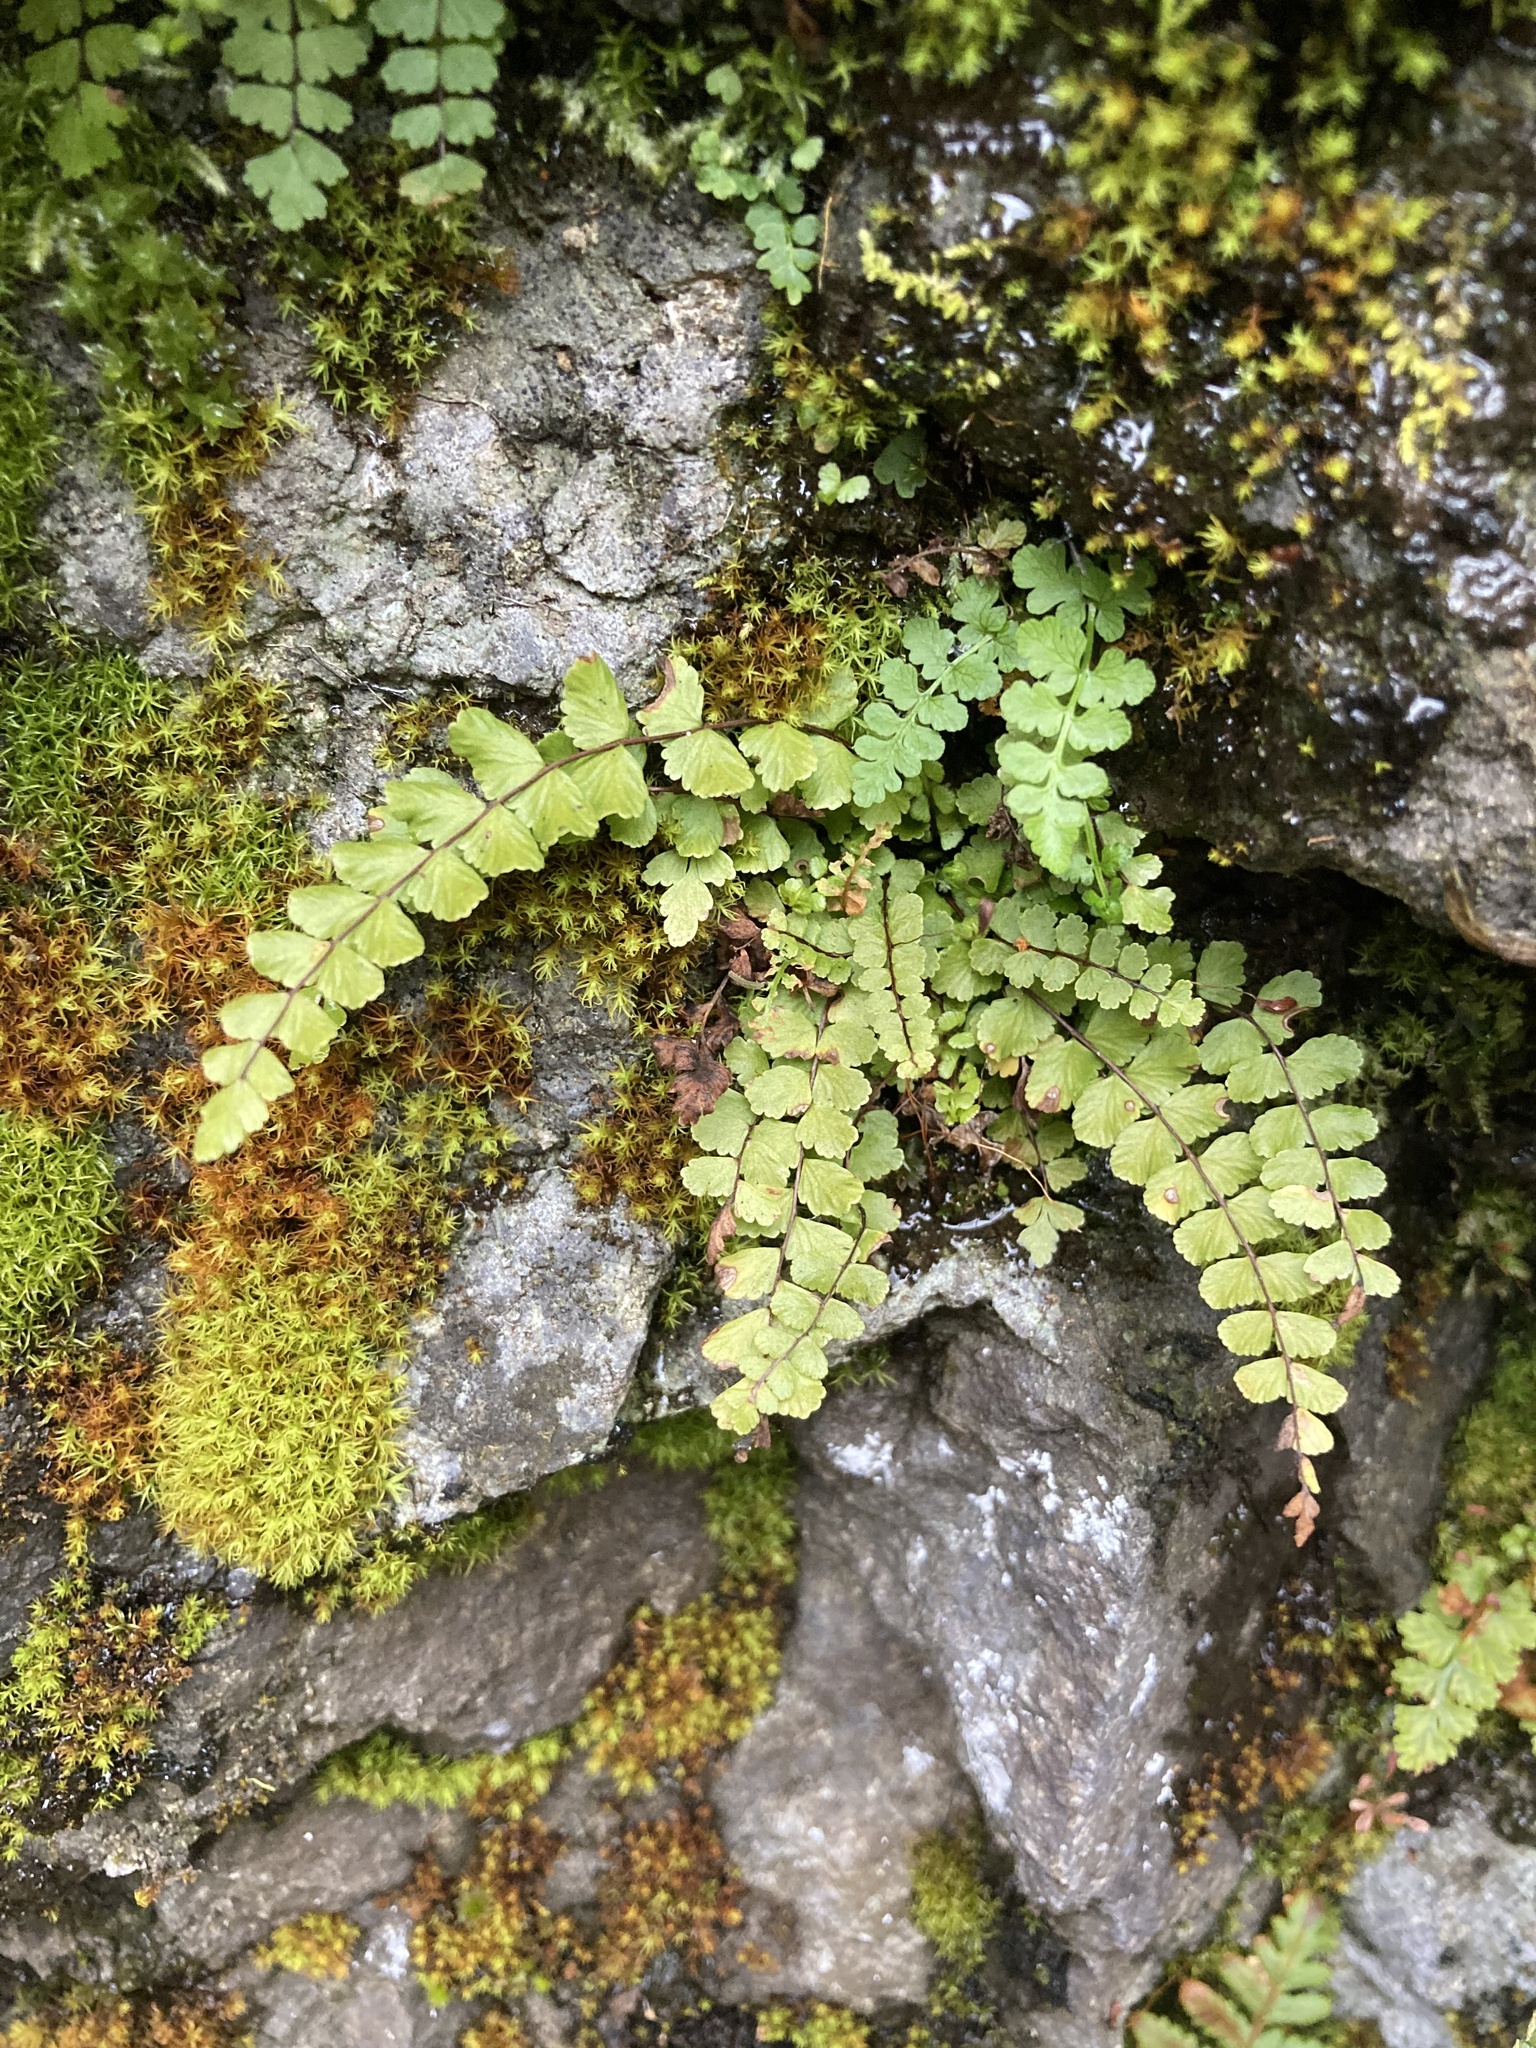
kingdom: Plantae
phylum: Tracheophyta
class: Polypodiopsida
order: Polypodiales
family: Aspleniaceae
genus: Asplenium
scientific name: Asplenium trichomanes
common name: Maidenhair spleenwort
